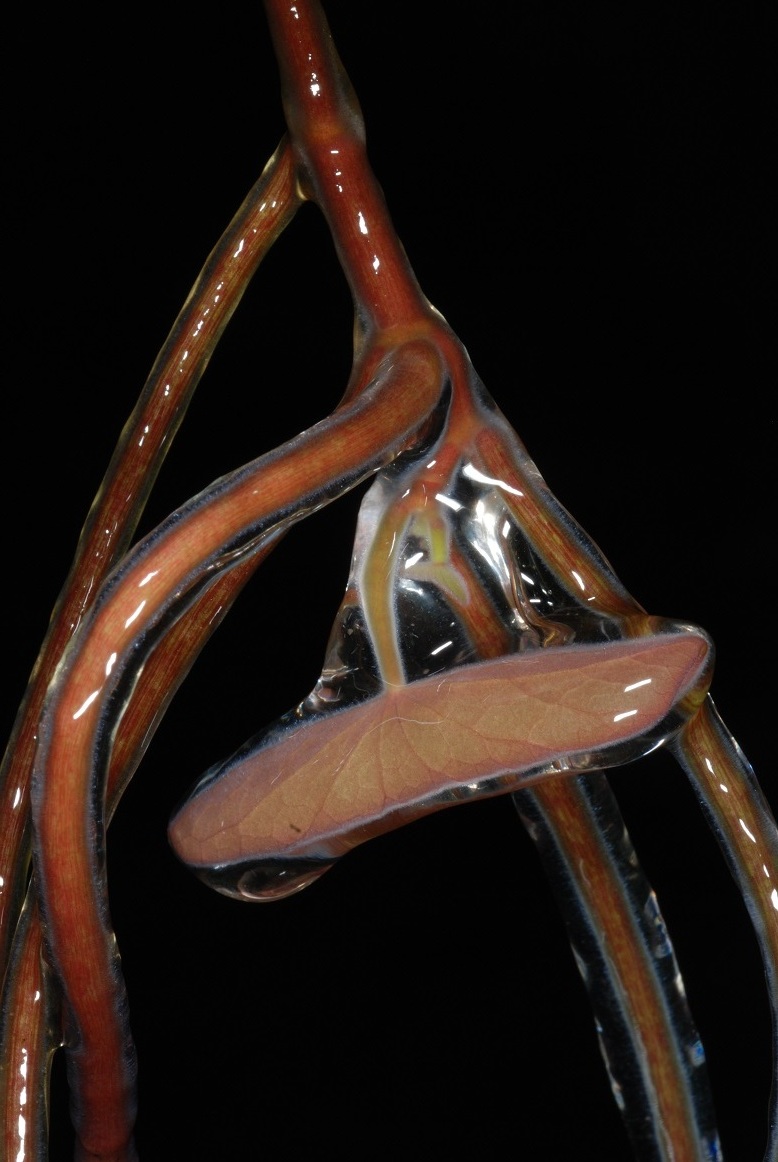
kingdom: Plantae
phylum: Tracheophyta
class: Magnoliopsida
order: Nymphaeales
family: Cabombaceae
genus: Brasenia
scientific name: Brasenia schreberi
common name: Water-shield
